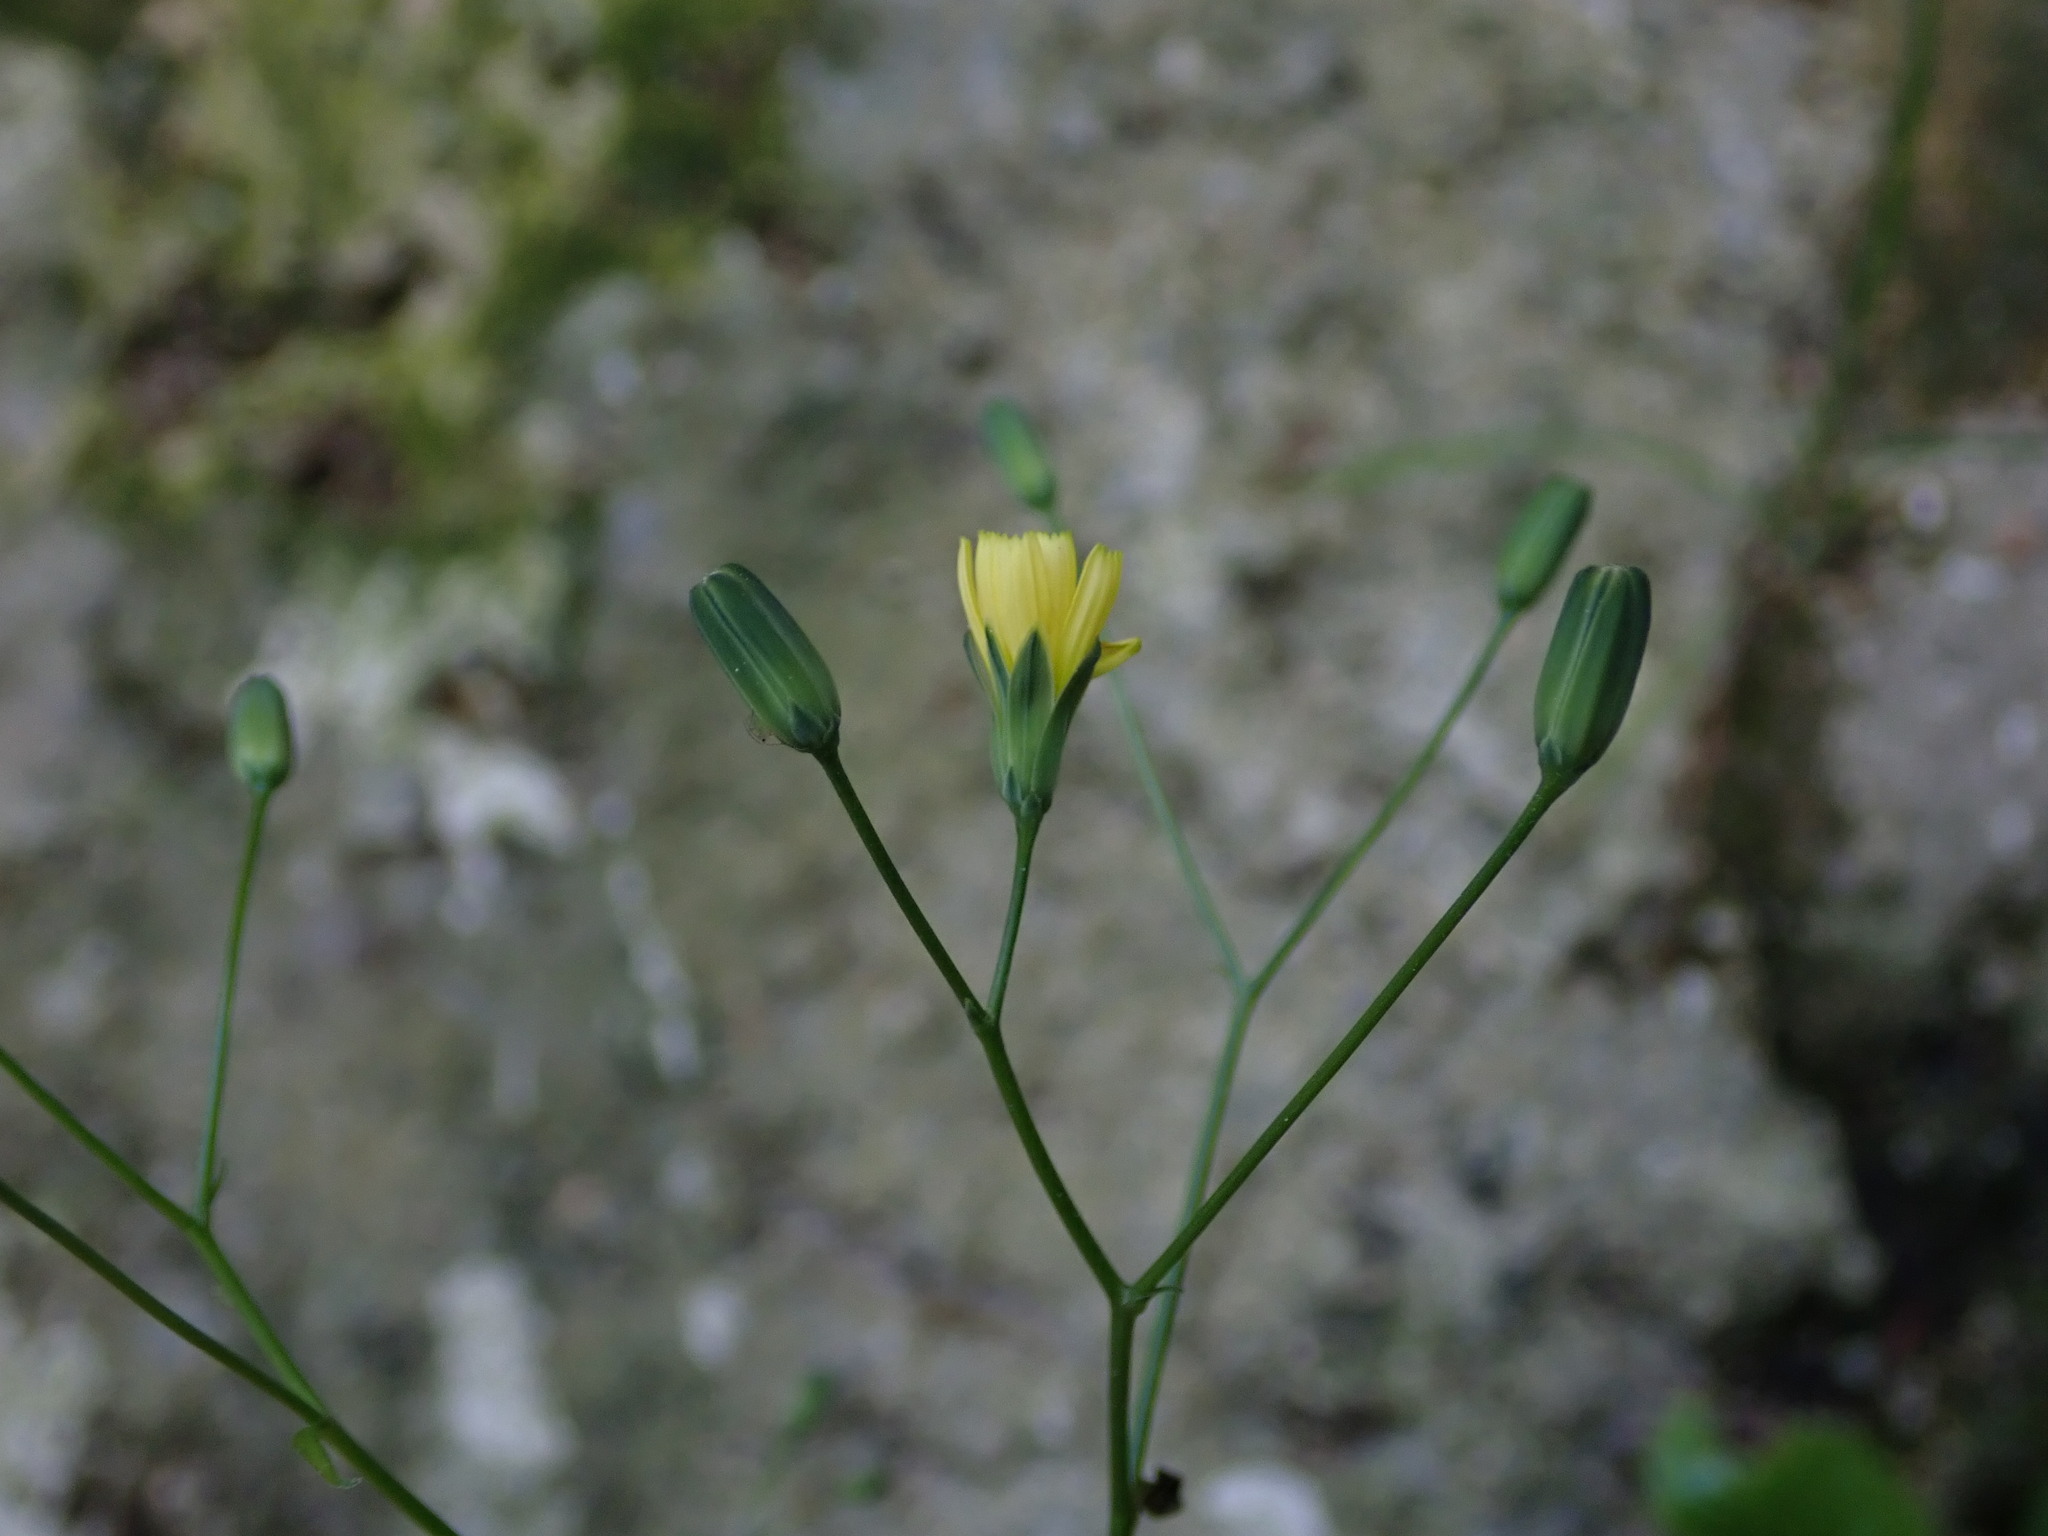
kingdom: Plantae
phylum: Tracheophyta
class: Magnoliopsida
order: Asterales
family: Asteraceae
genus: Lapsana
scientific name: Lapsana communis
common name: Nipplewort
